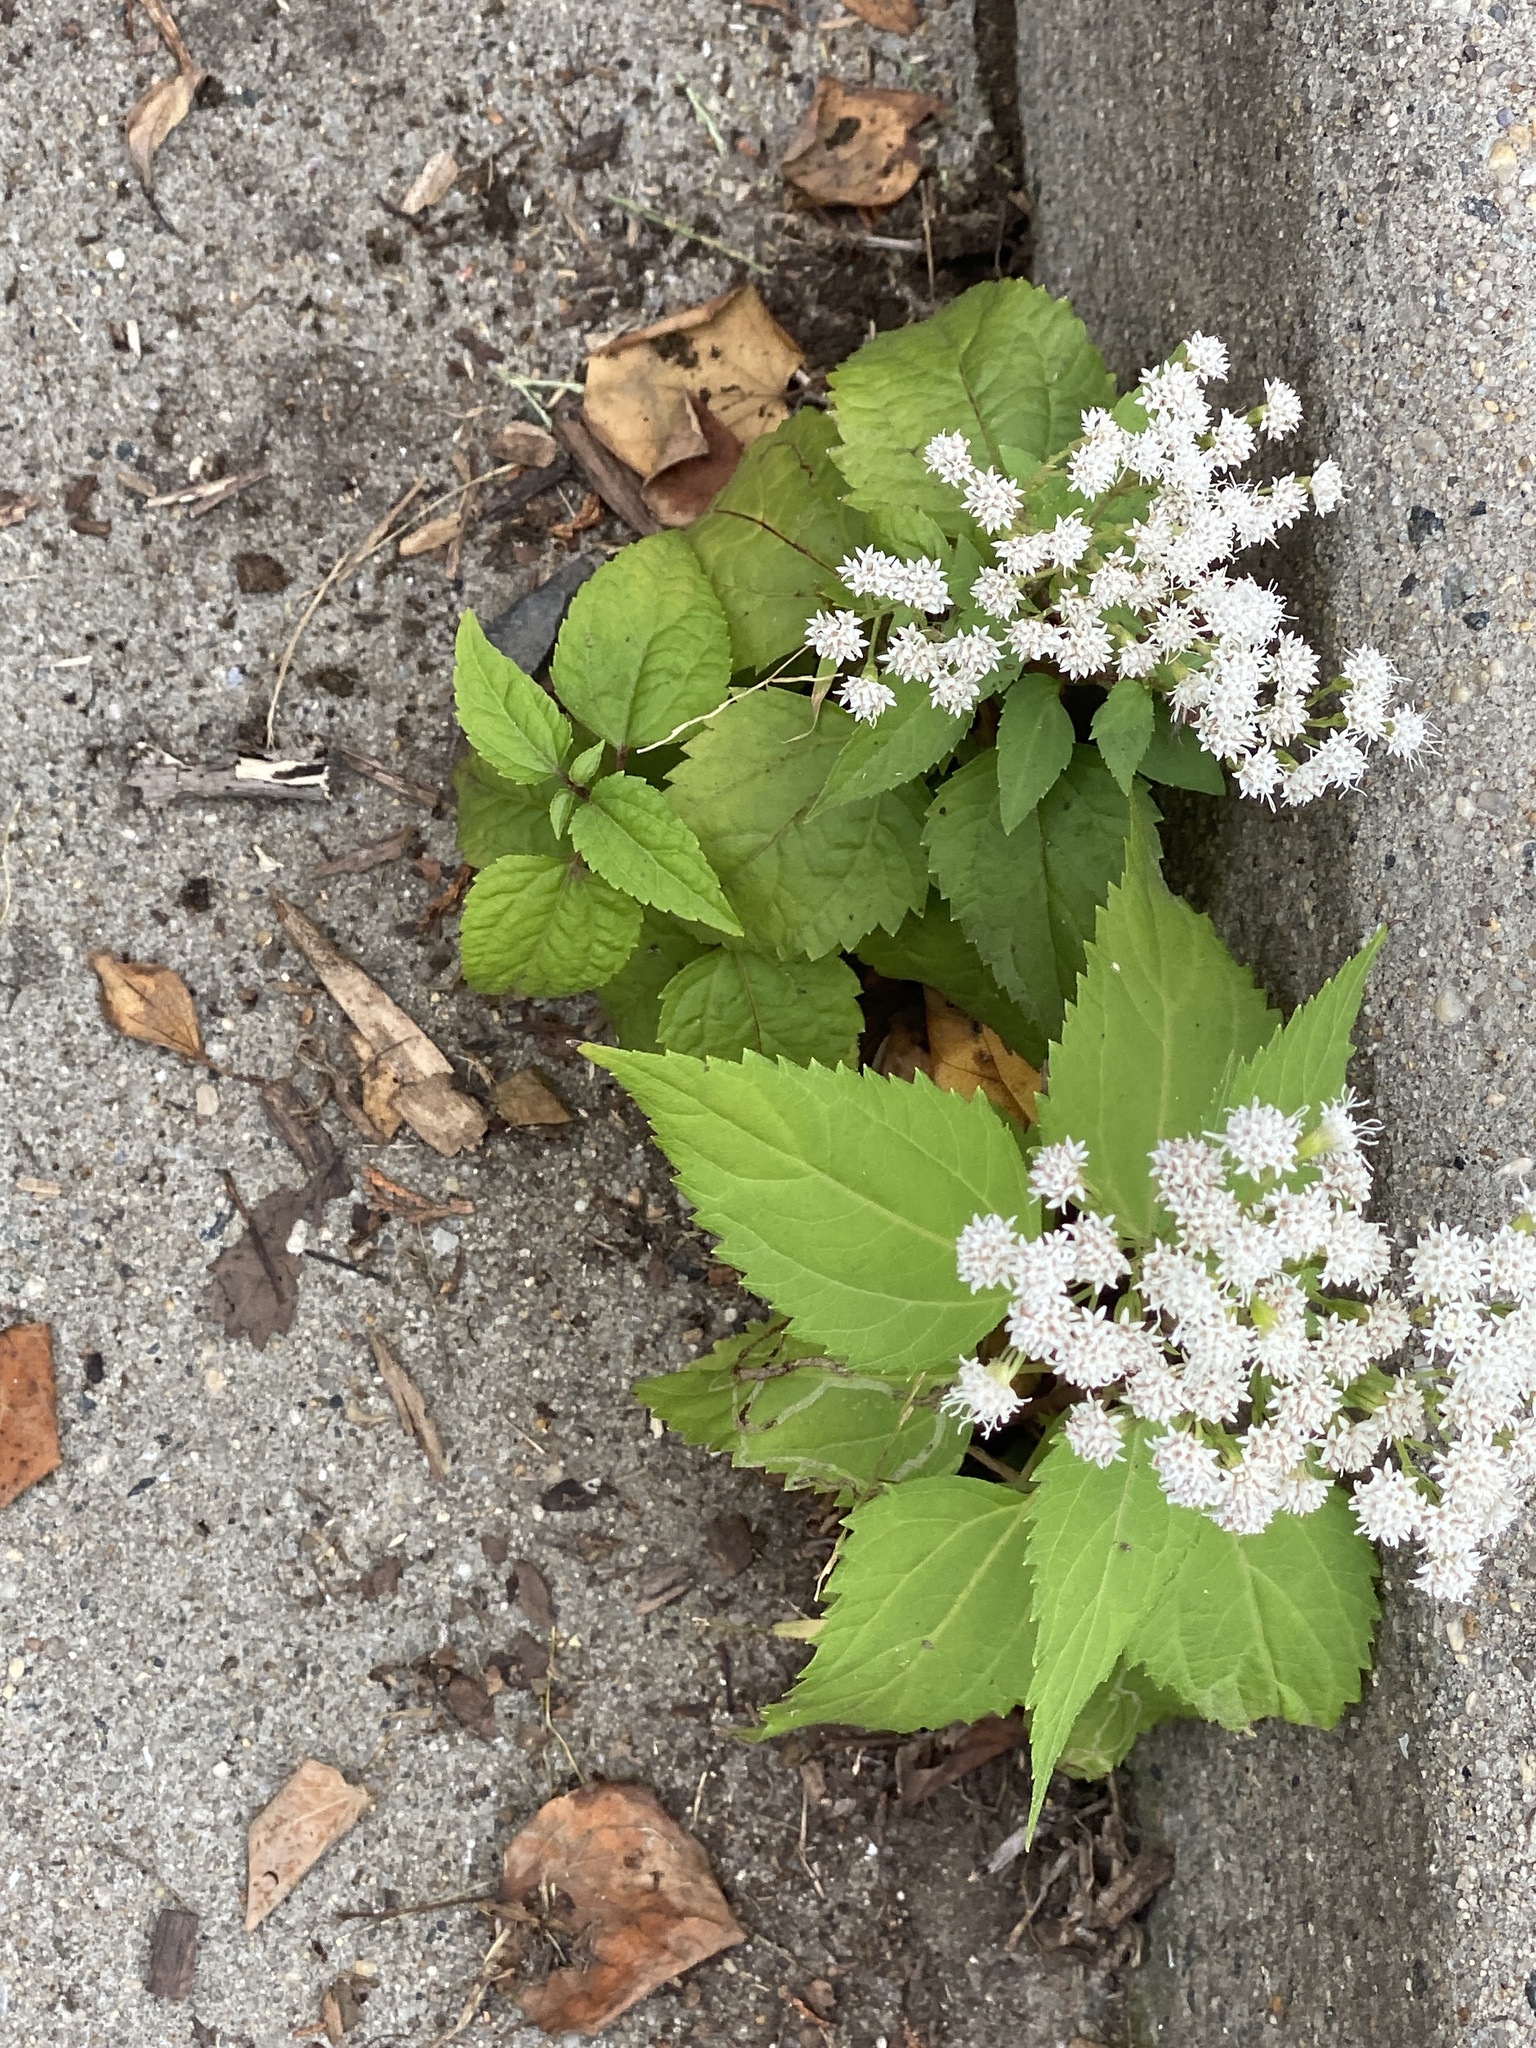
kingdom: Plantae
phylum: Tracheophyta
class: Magnoliopsida
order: Asterales
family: Asteraceae
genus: Ageratina
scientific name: Ageratina altissima
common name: White snakeroot
